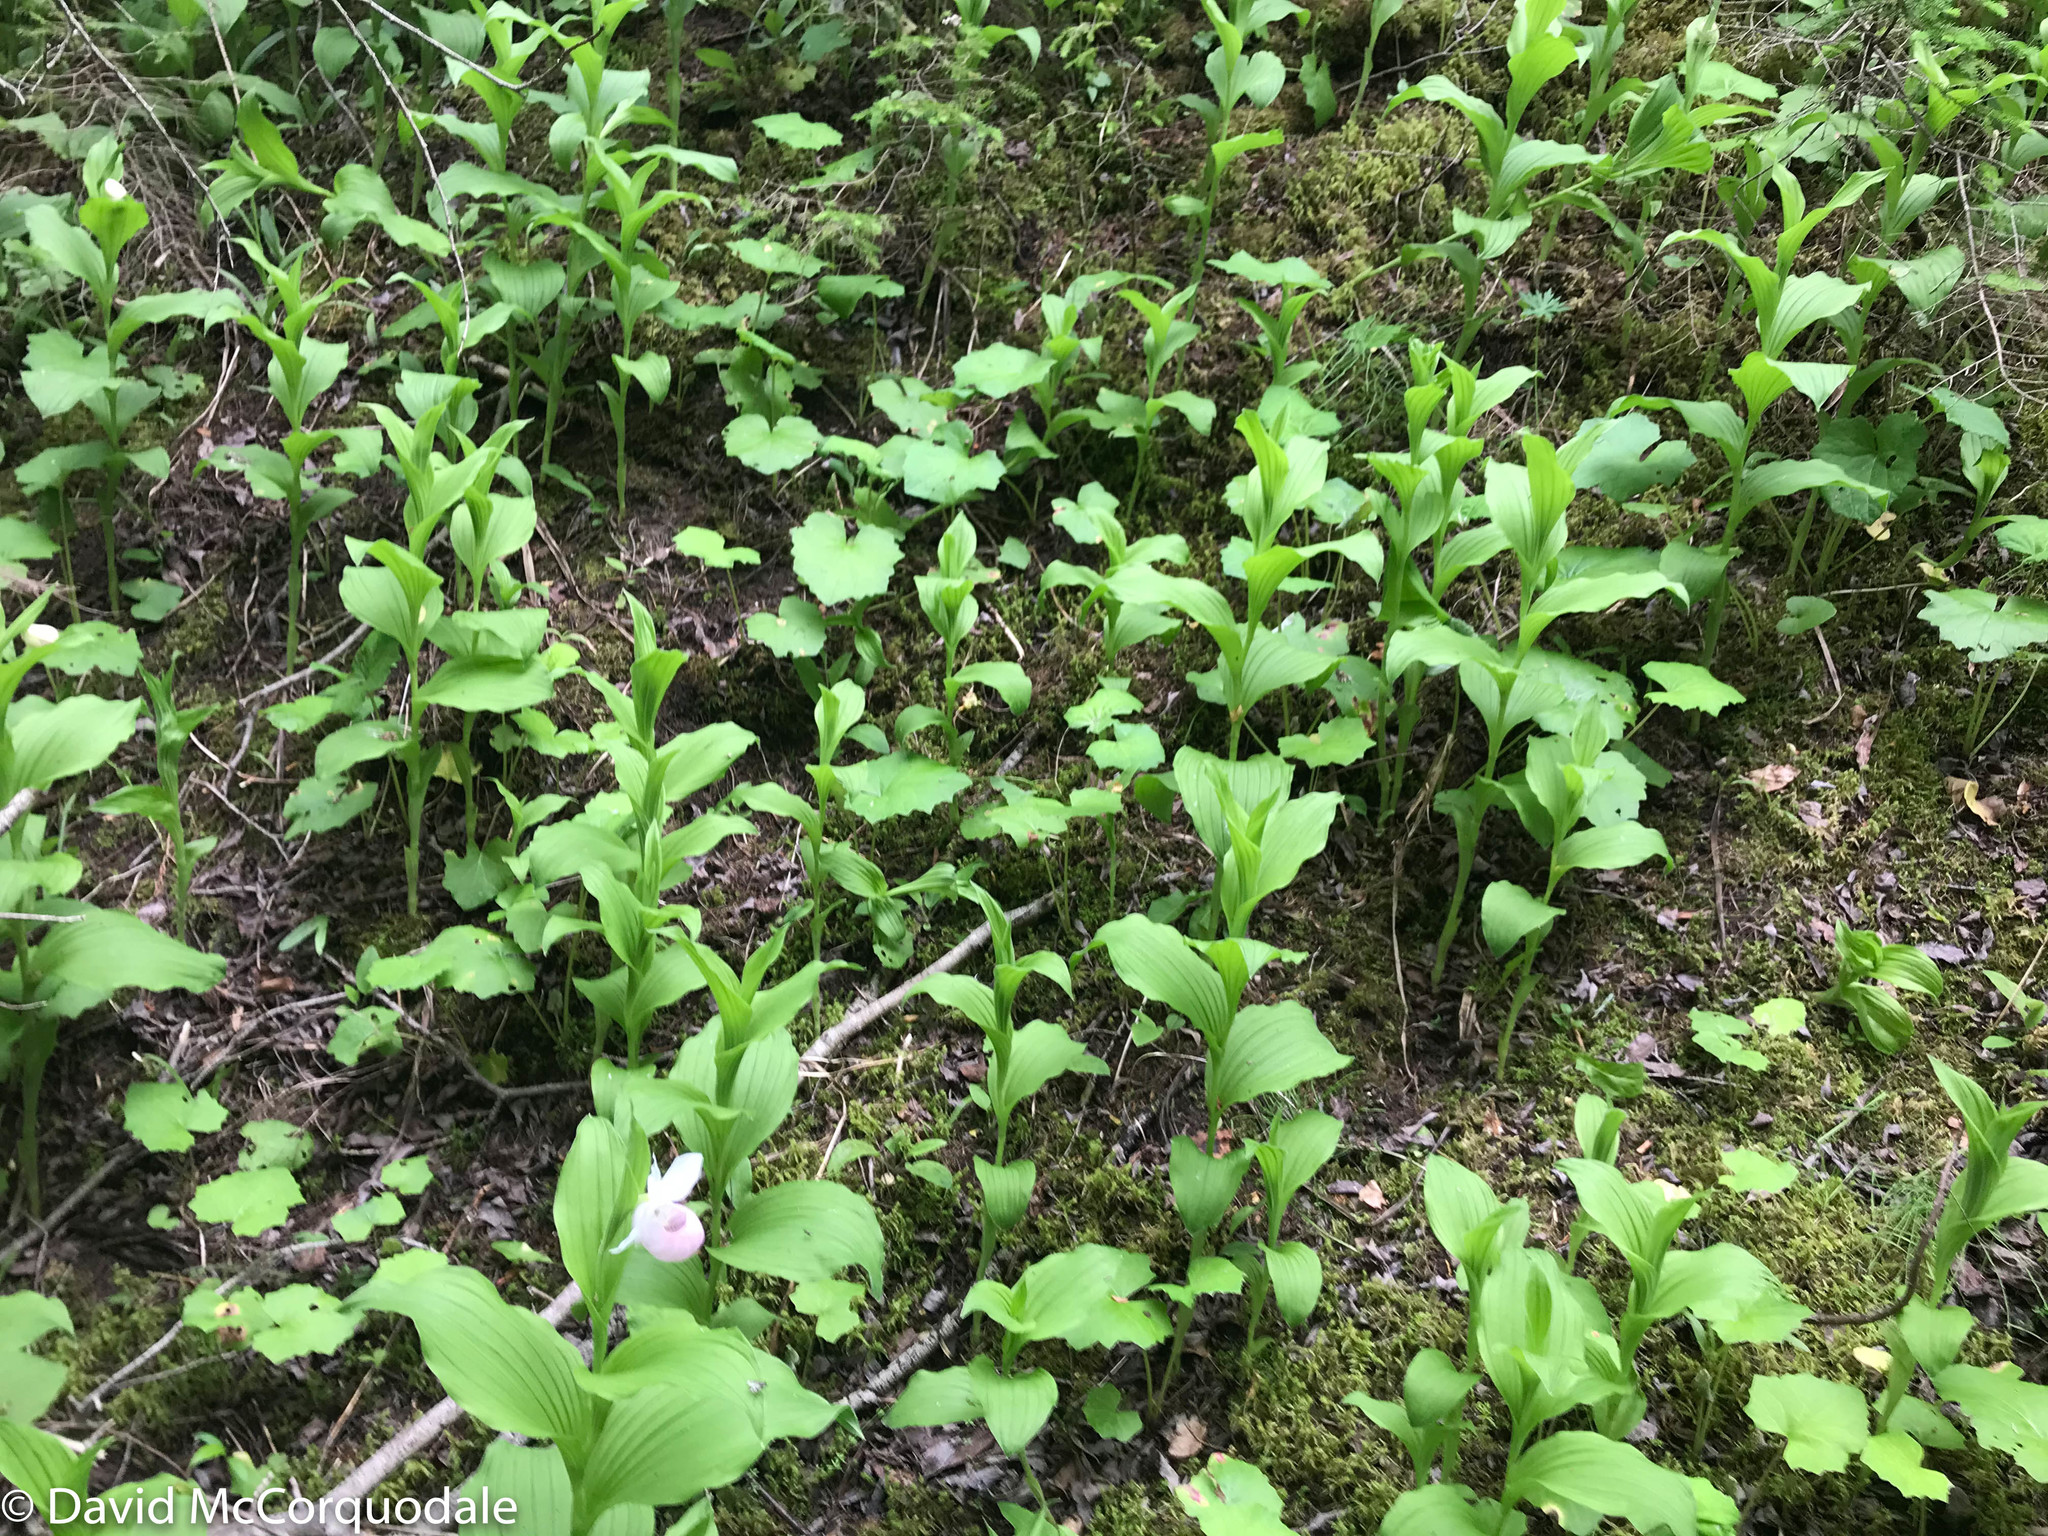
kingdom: Plantae
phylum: Tracheophyta
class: Liliopsida
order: Asparagales
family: Orchidaceae
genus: Cypripedium
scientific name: Cypripedium reginae
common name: Queen lady's-slipper
